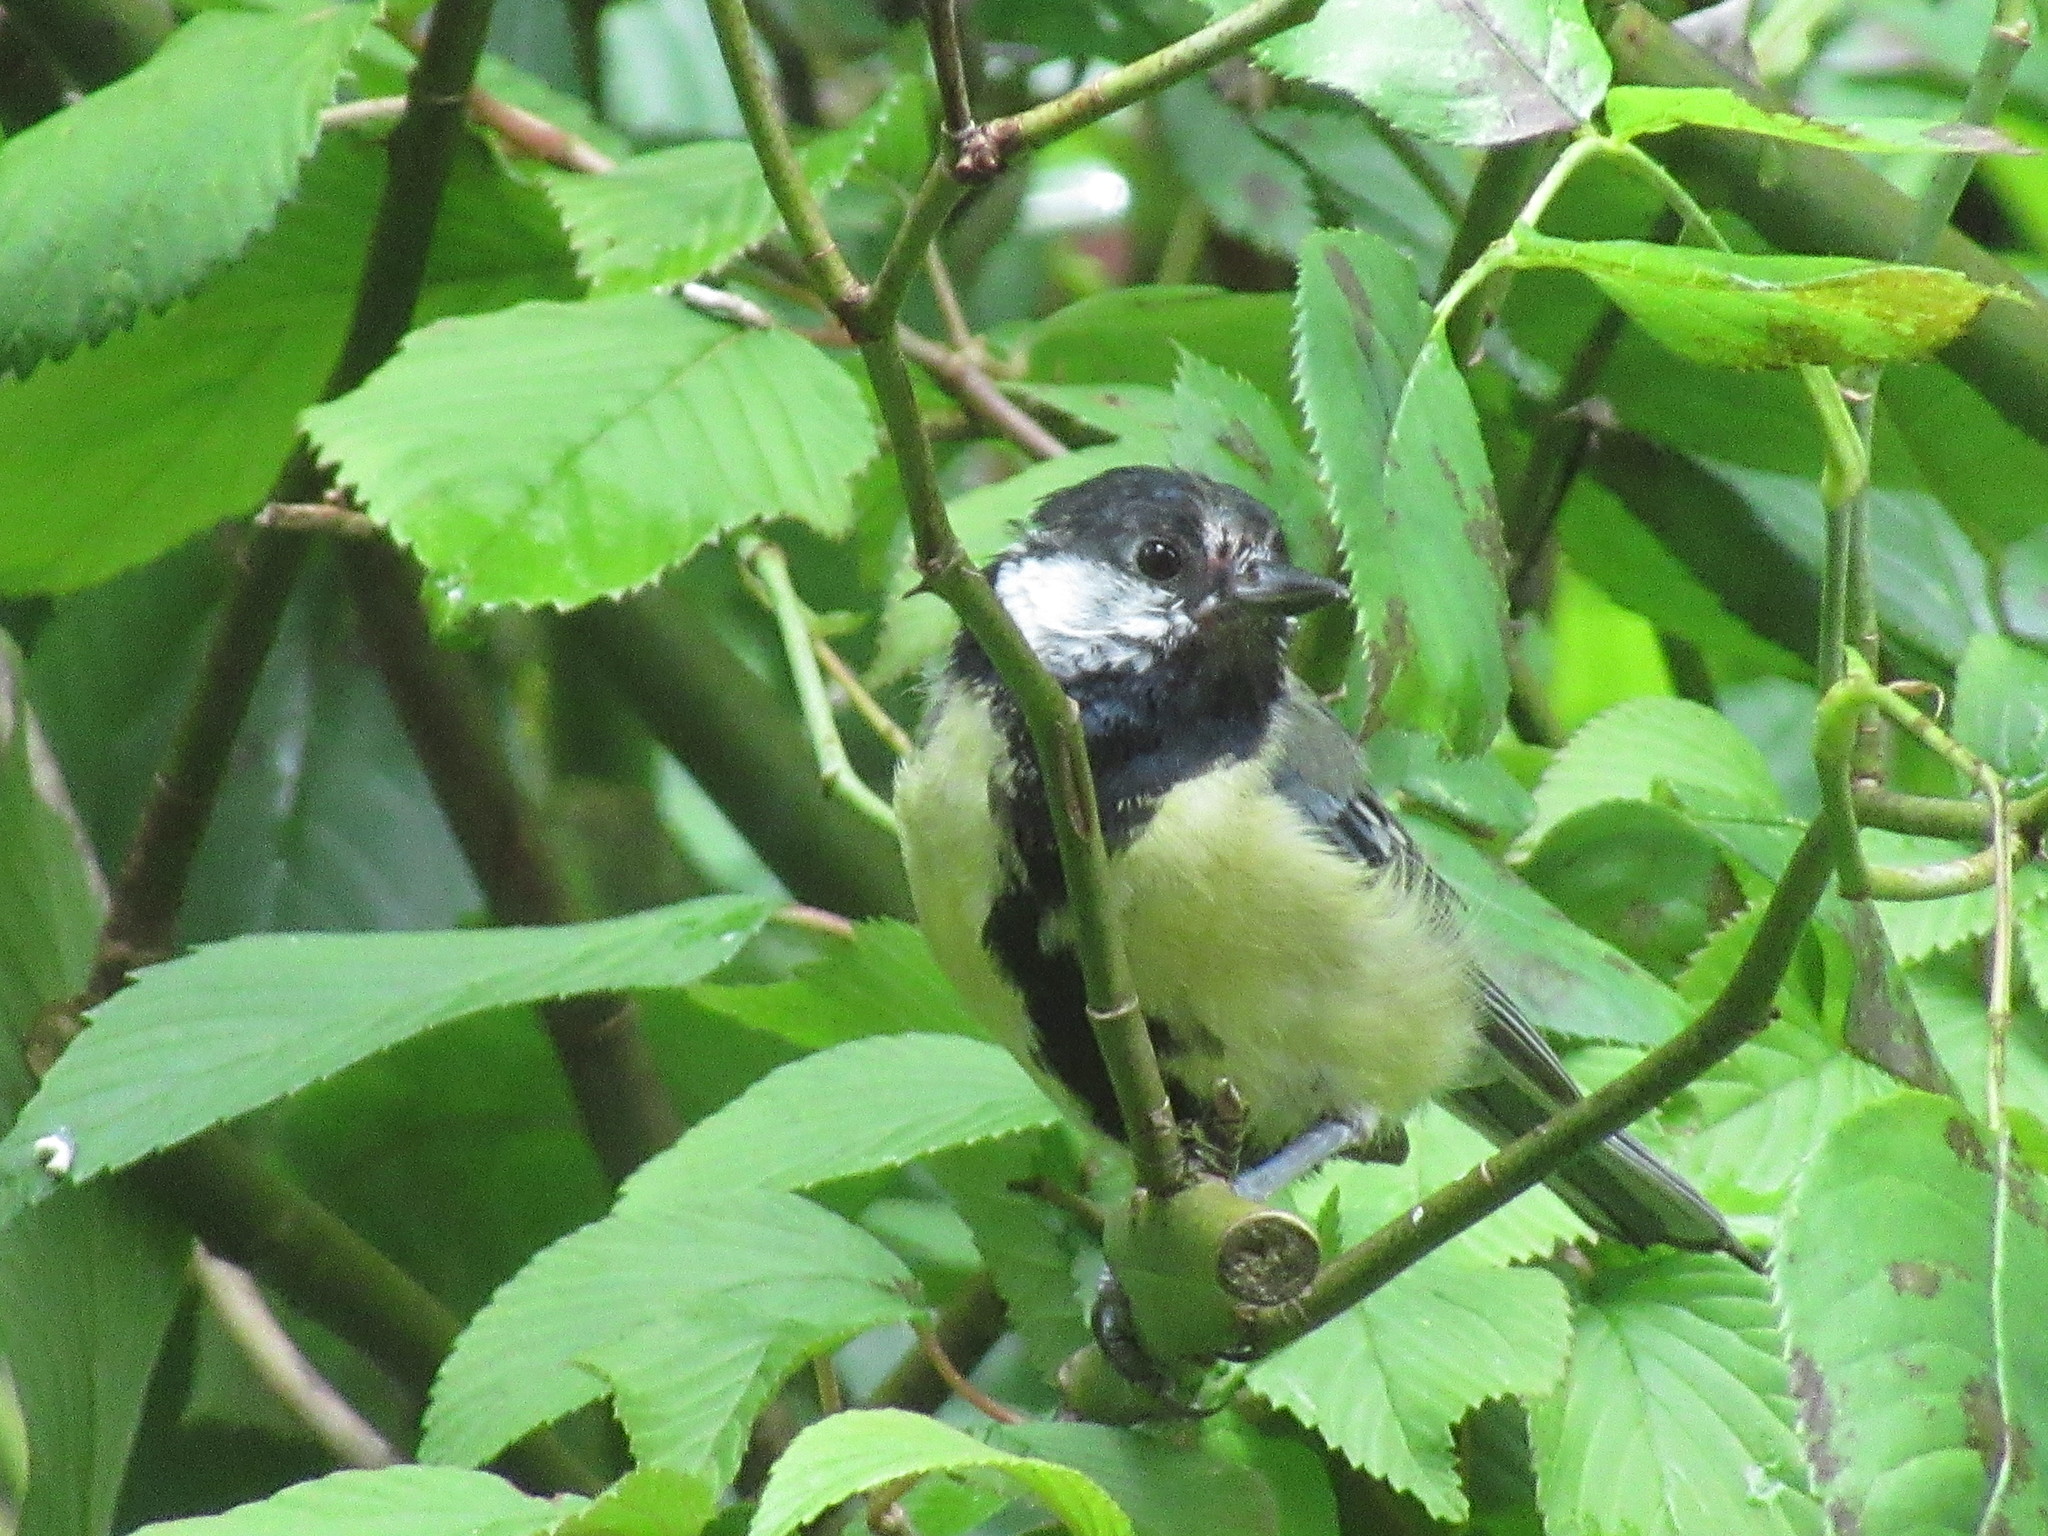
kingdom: Animalia
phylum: Chordata
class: Aves
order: Passeriformes
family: Paridae
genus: Parus
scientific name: Parus major
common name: Great tit
